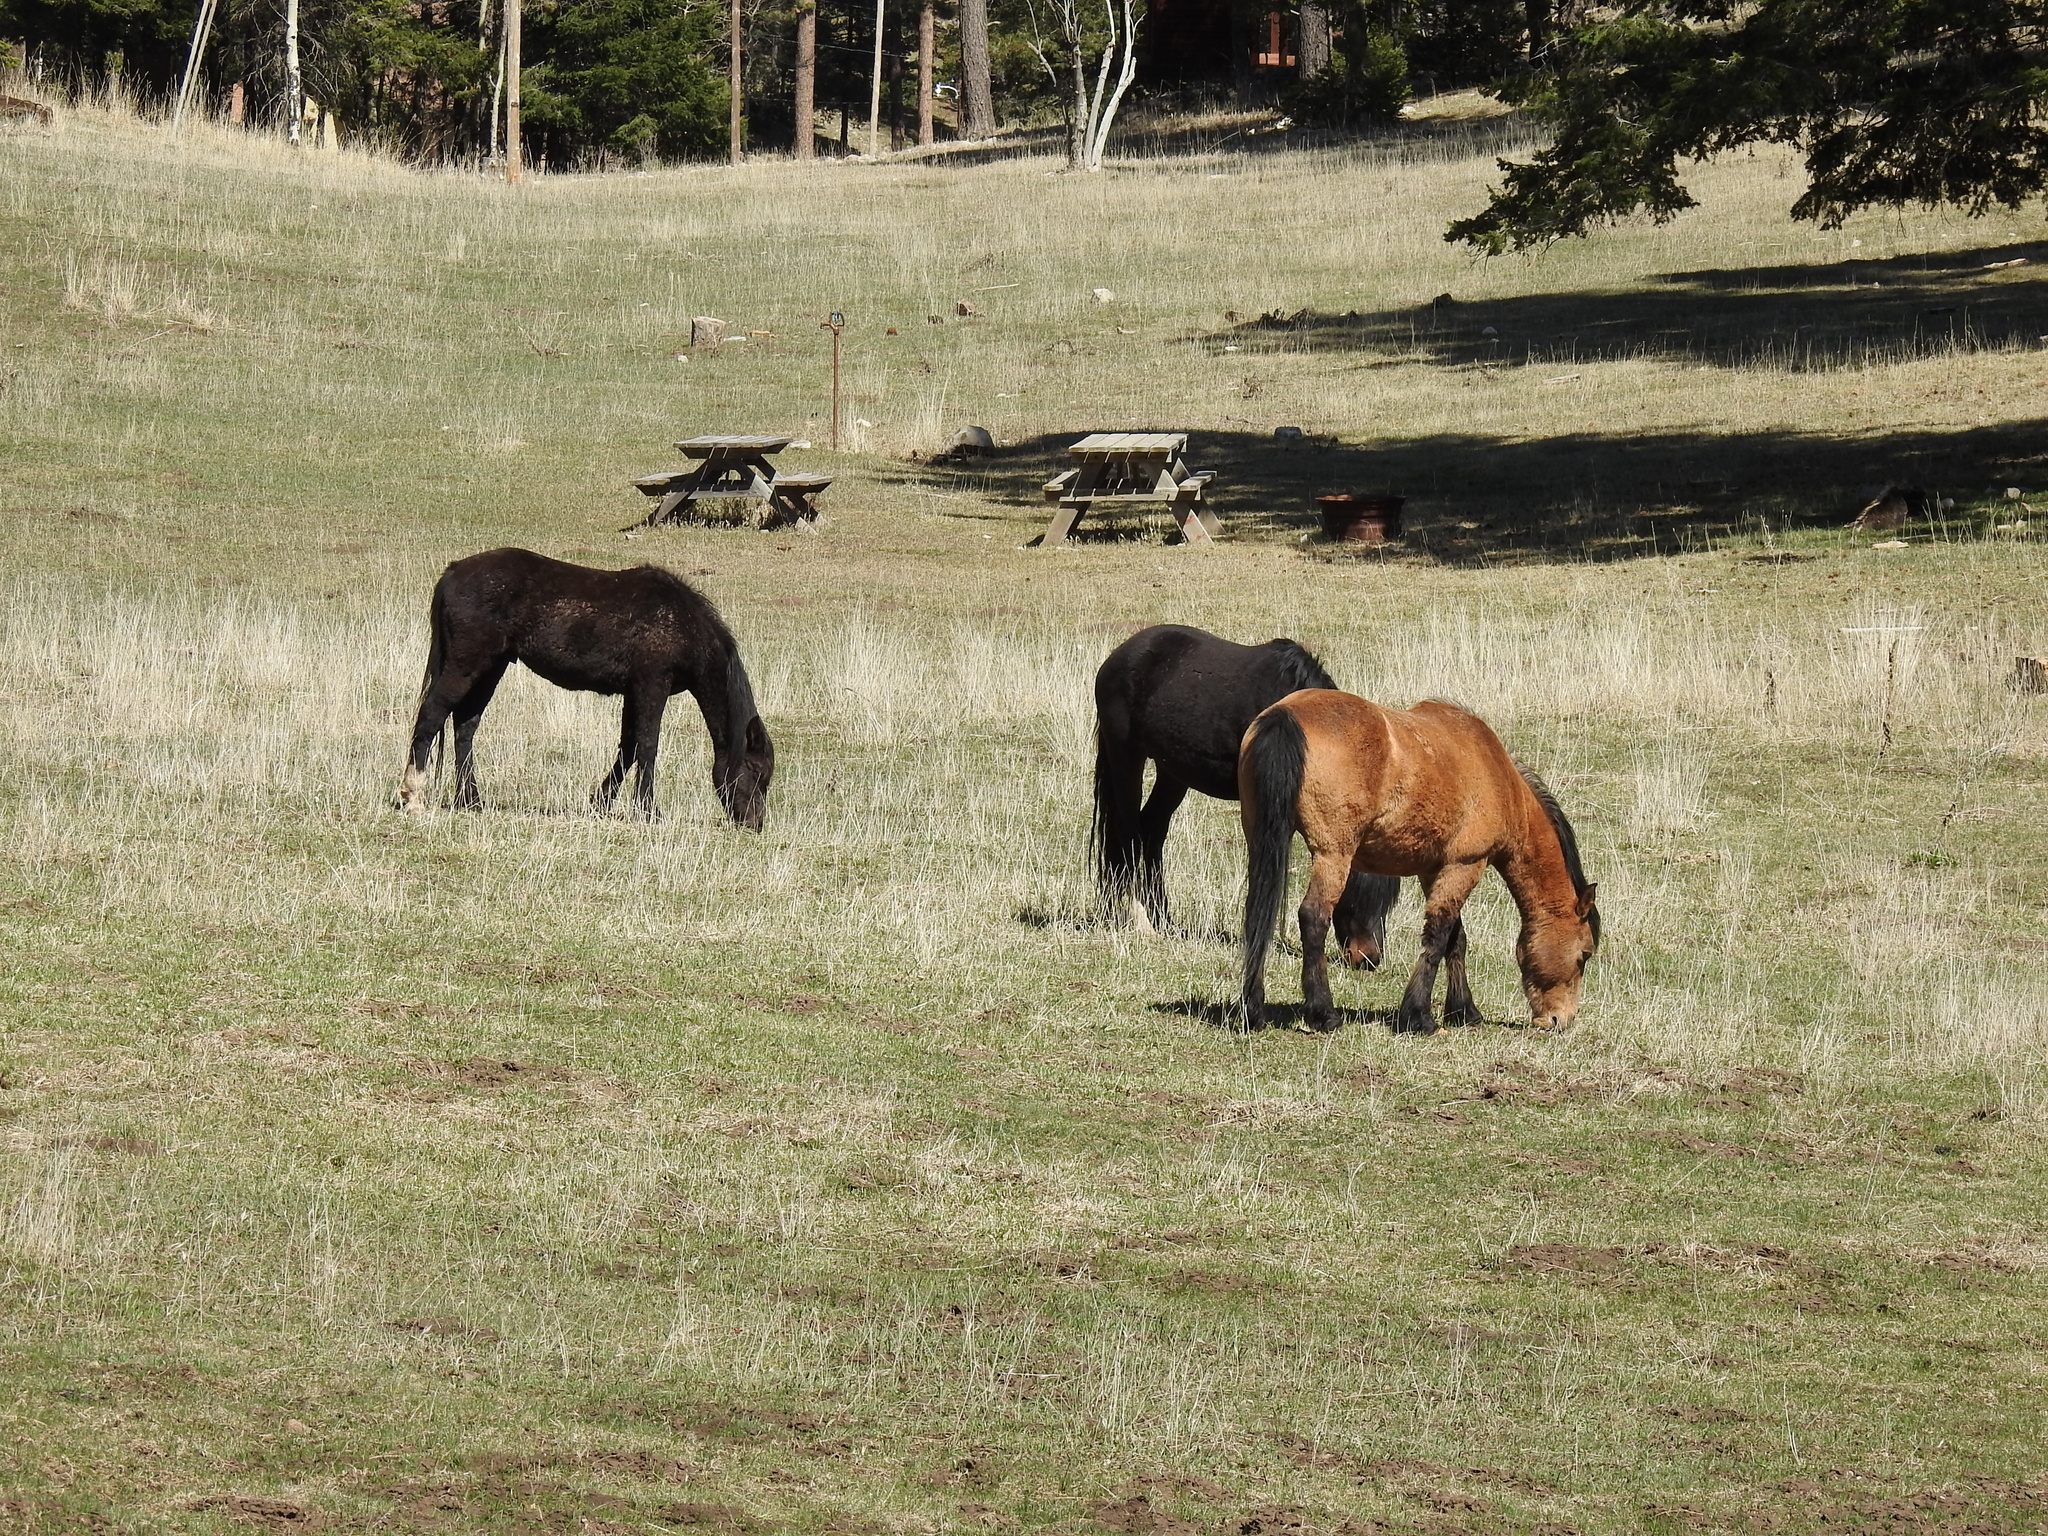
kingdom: Animalia
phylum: Chordata
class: Mammalia
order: Perissodactyla
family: Equidae
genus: Equus
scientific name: Equus caballus
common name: Horse
